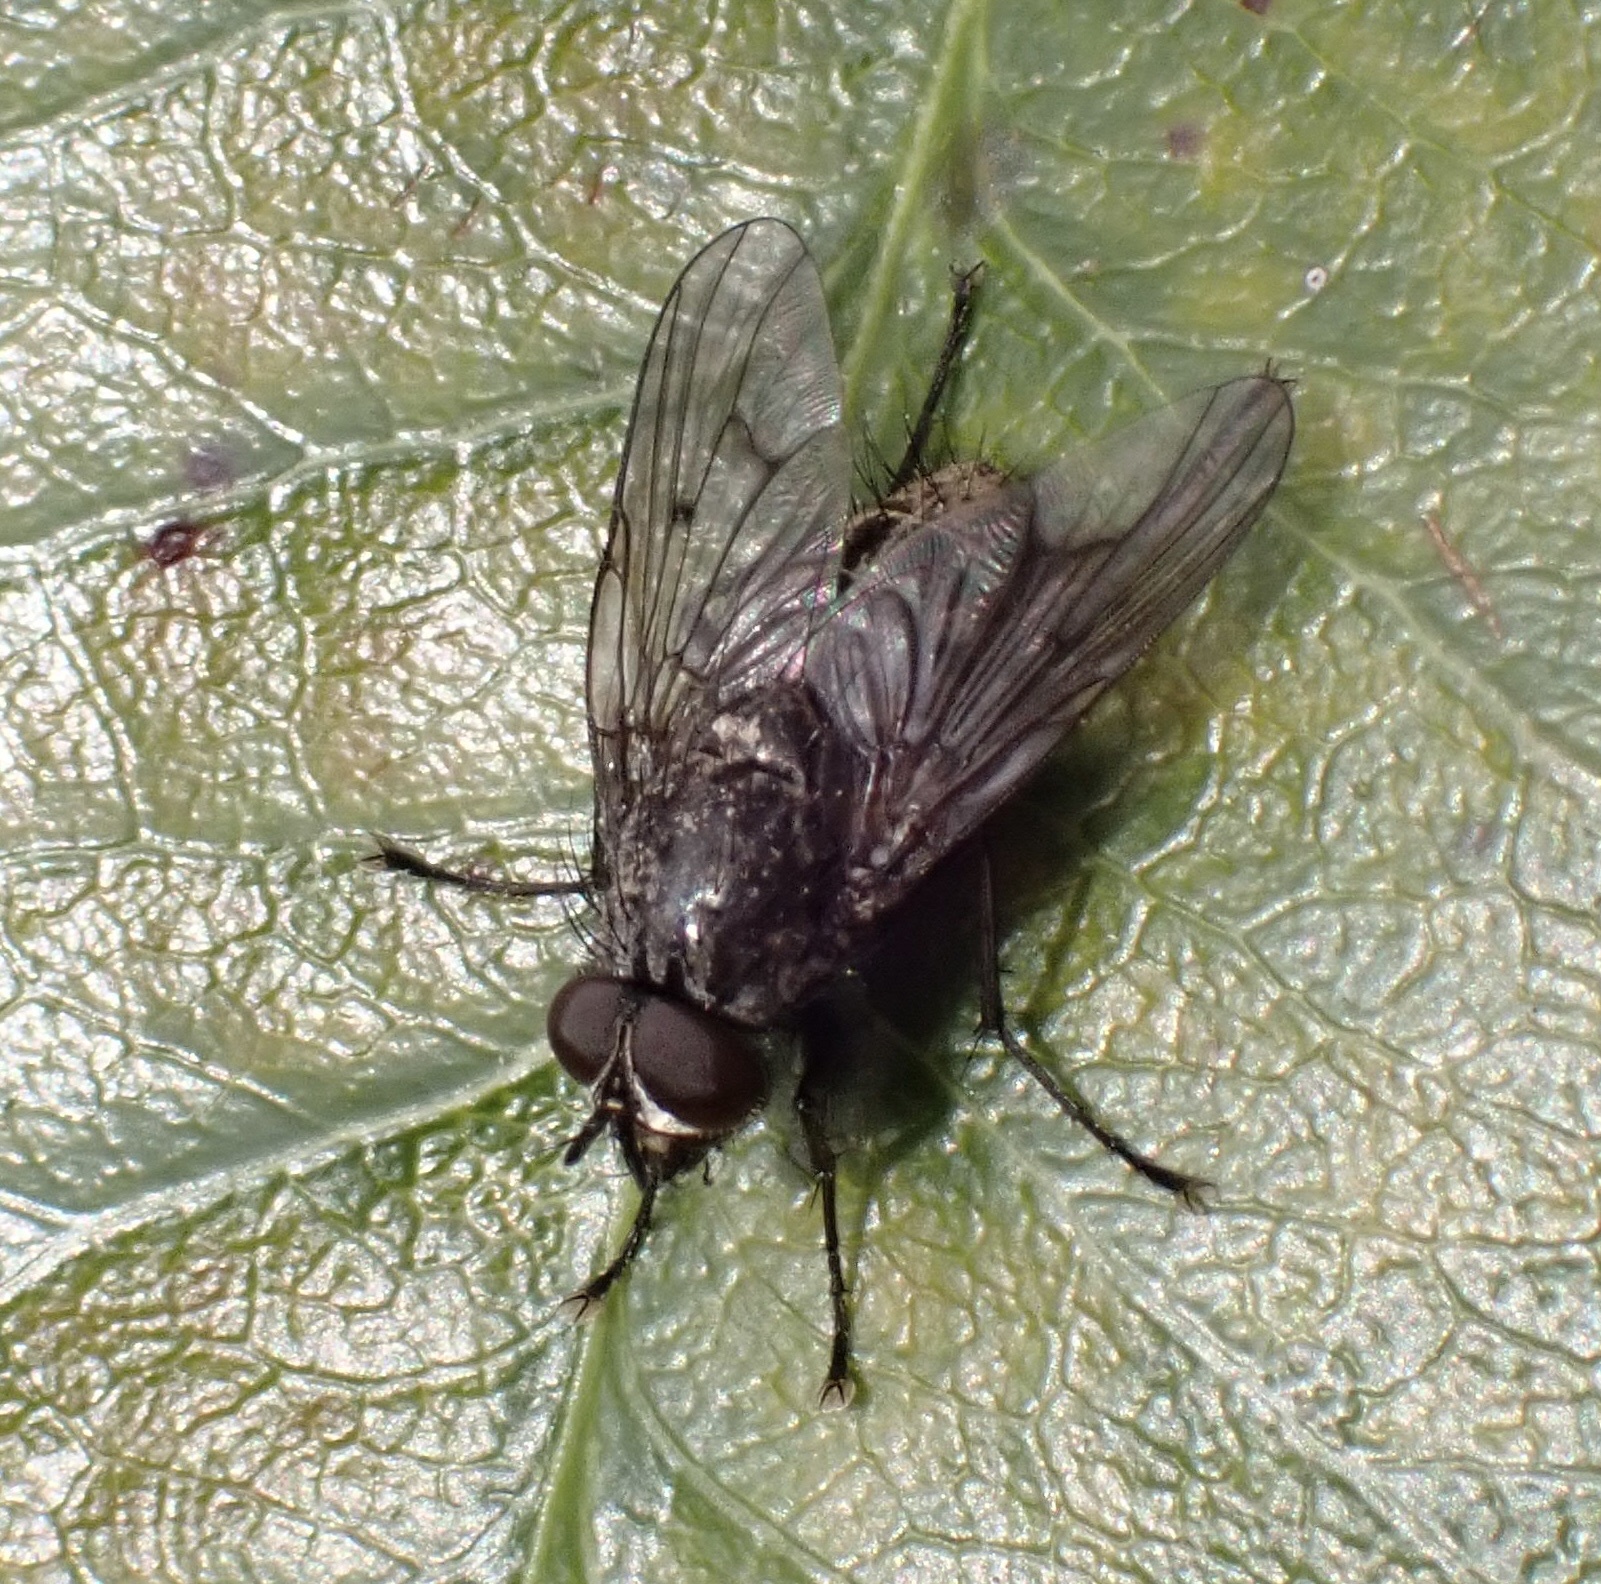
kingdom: Animalia
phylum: Arthropoda
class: Insecta
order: Diptera
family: Muscidae
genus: Helina
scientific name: Helina evecta
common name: Muscid fly
